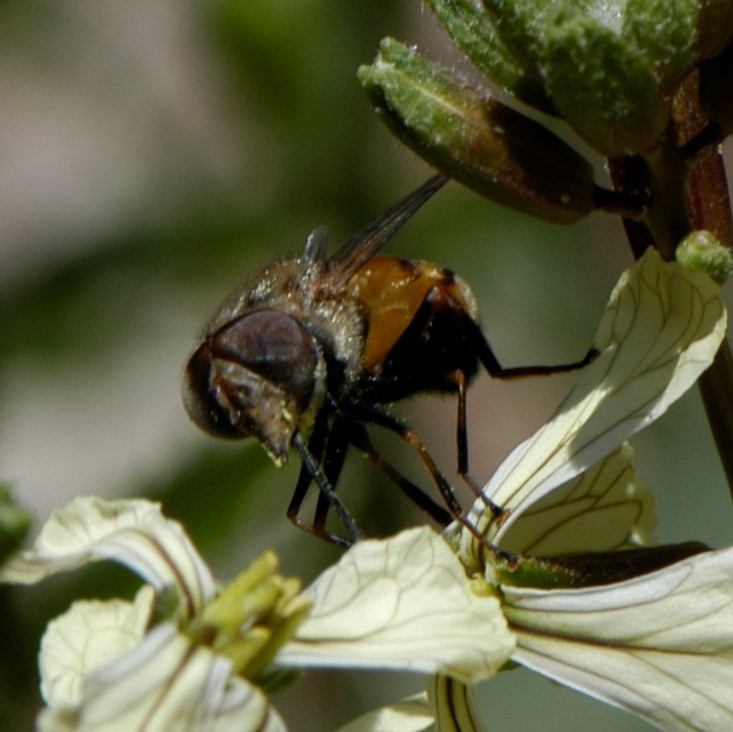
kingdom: Animalia
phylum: Arthropoda
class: Insecta
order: Diptera
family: Syrphidae
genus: Copestylum
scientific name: Copestylum haagii
